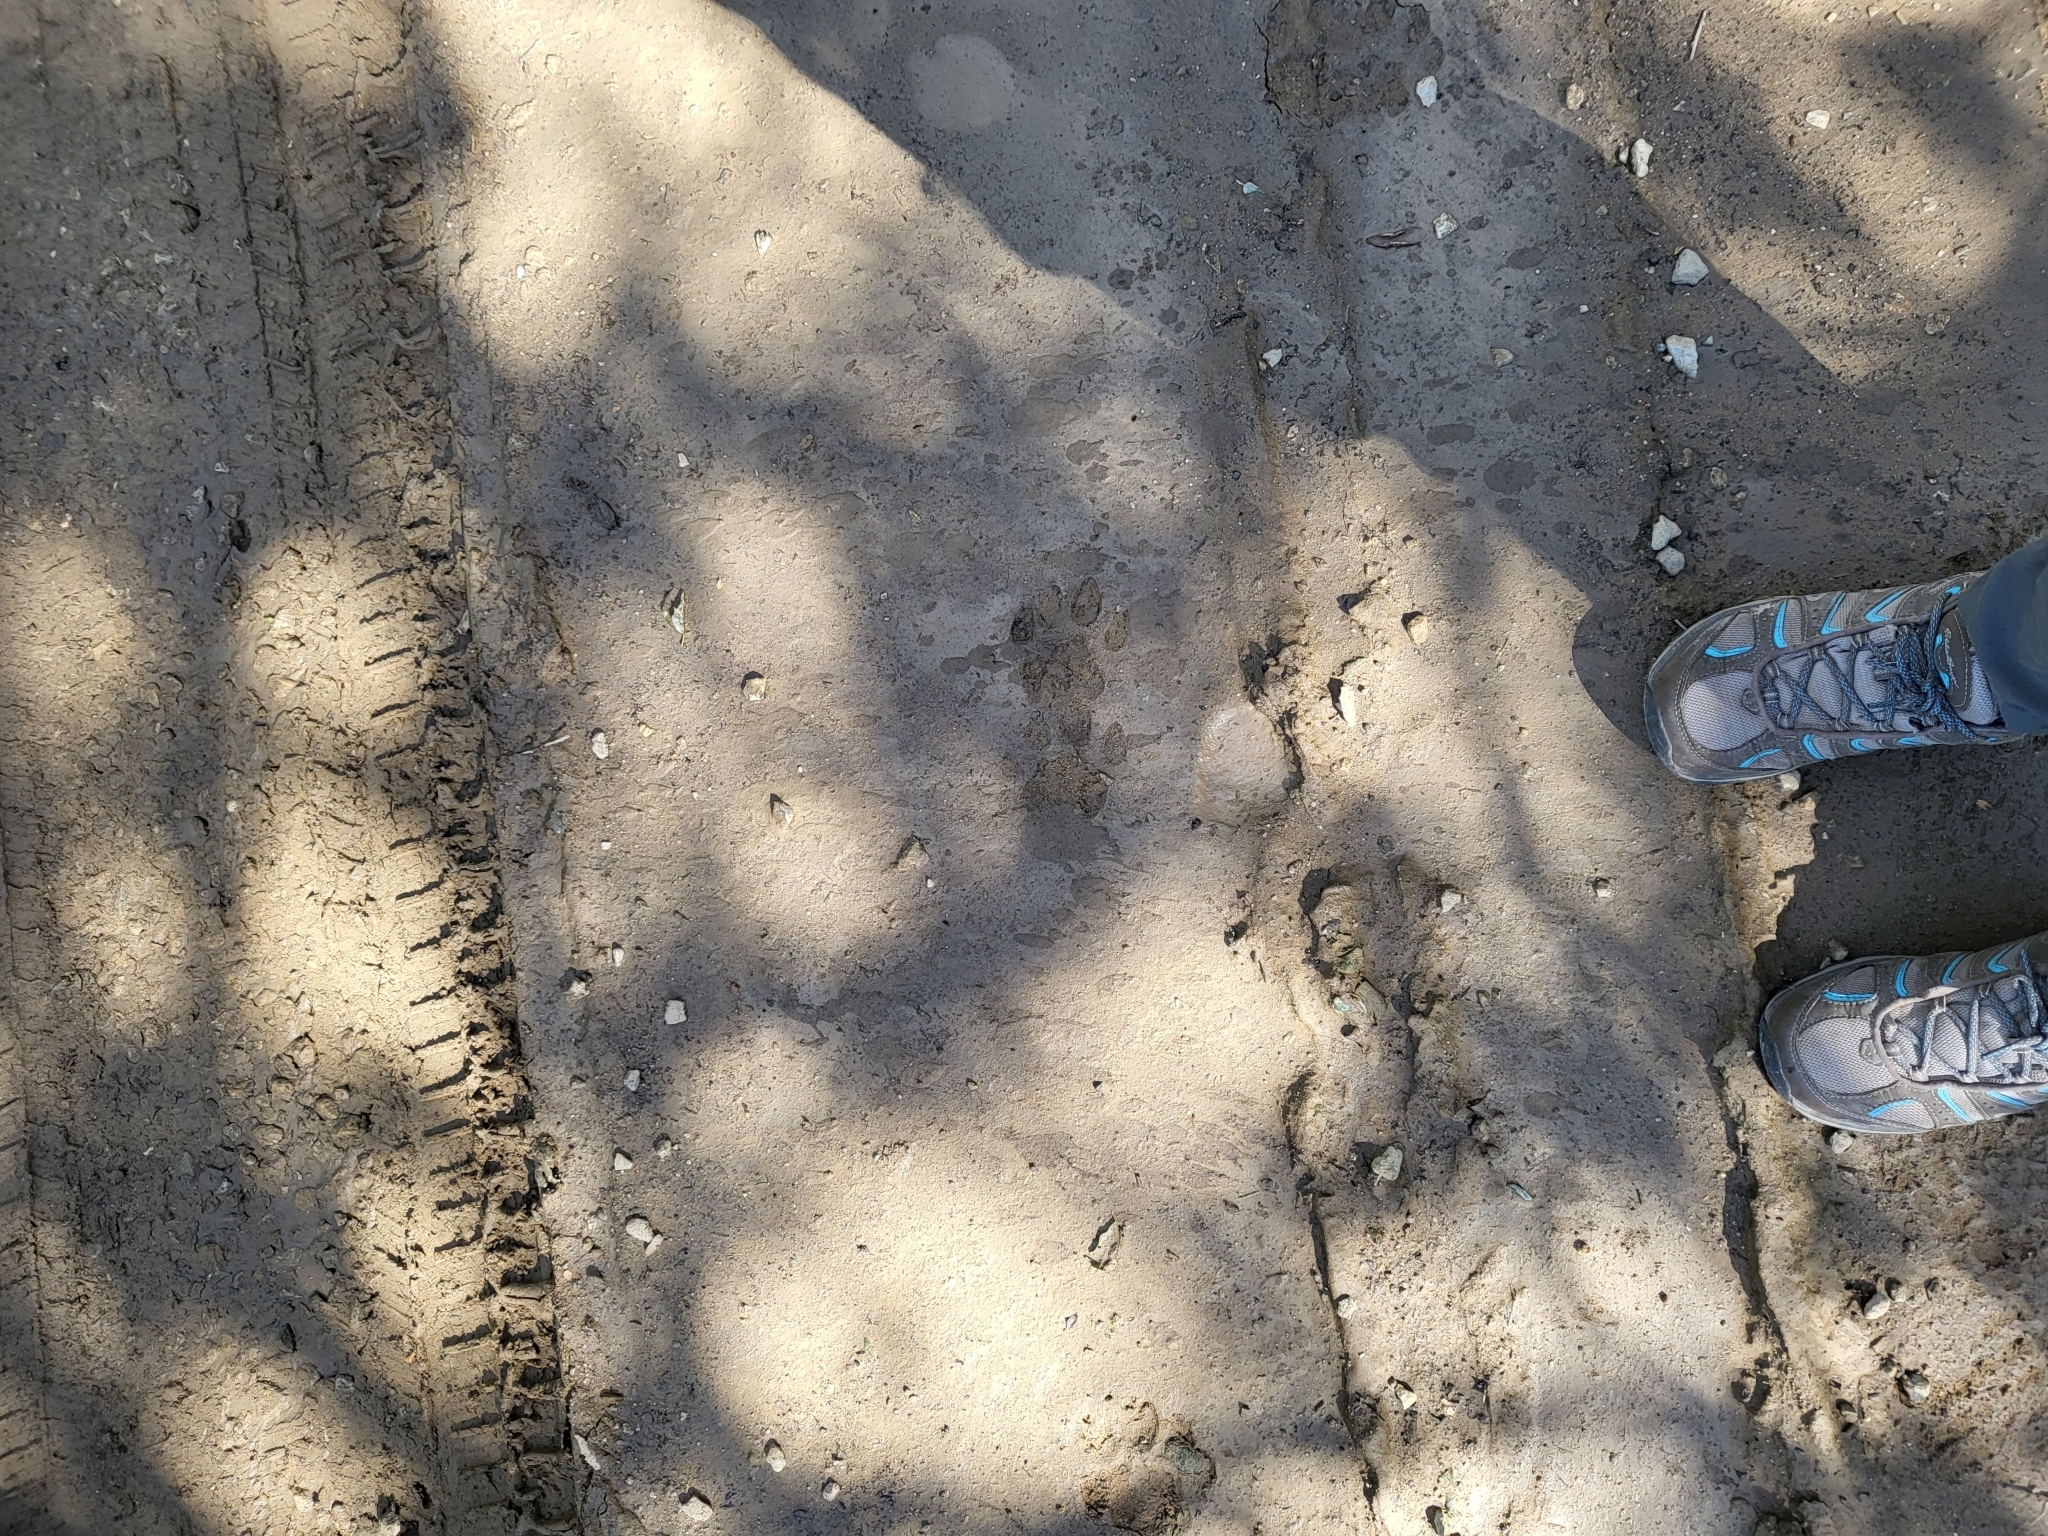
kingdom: Animalia
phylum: Chordata
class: Mammalia
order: Carnivora
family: Felidae
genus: Puma
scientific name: Puma concolor
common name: Puma
